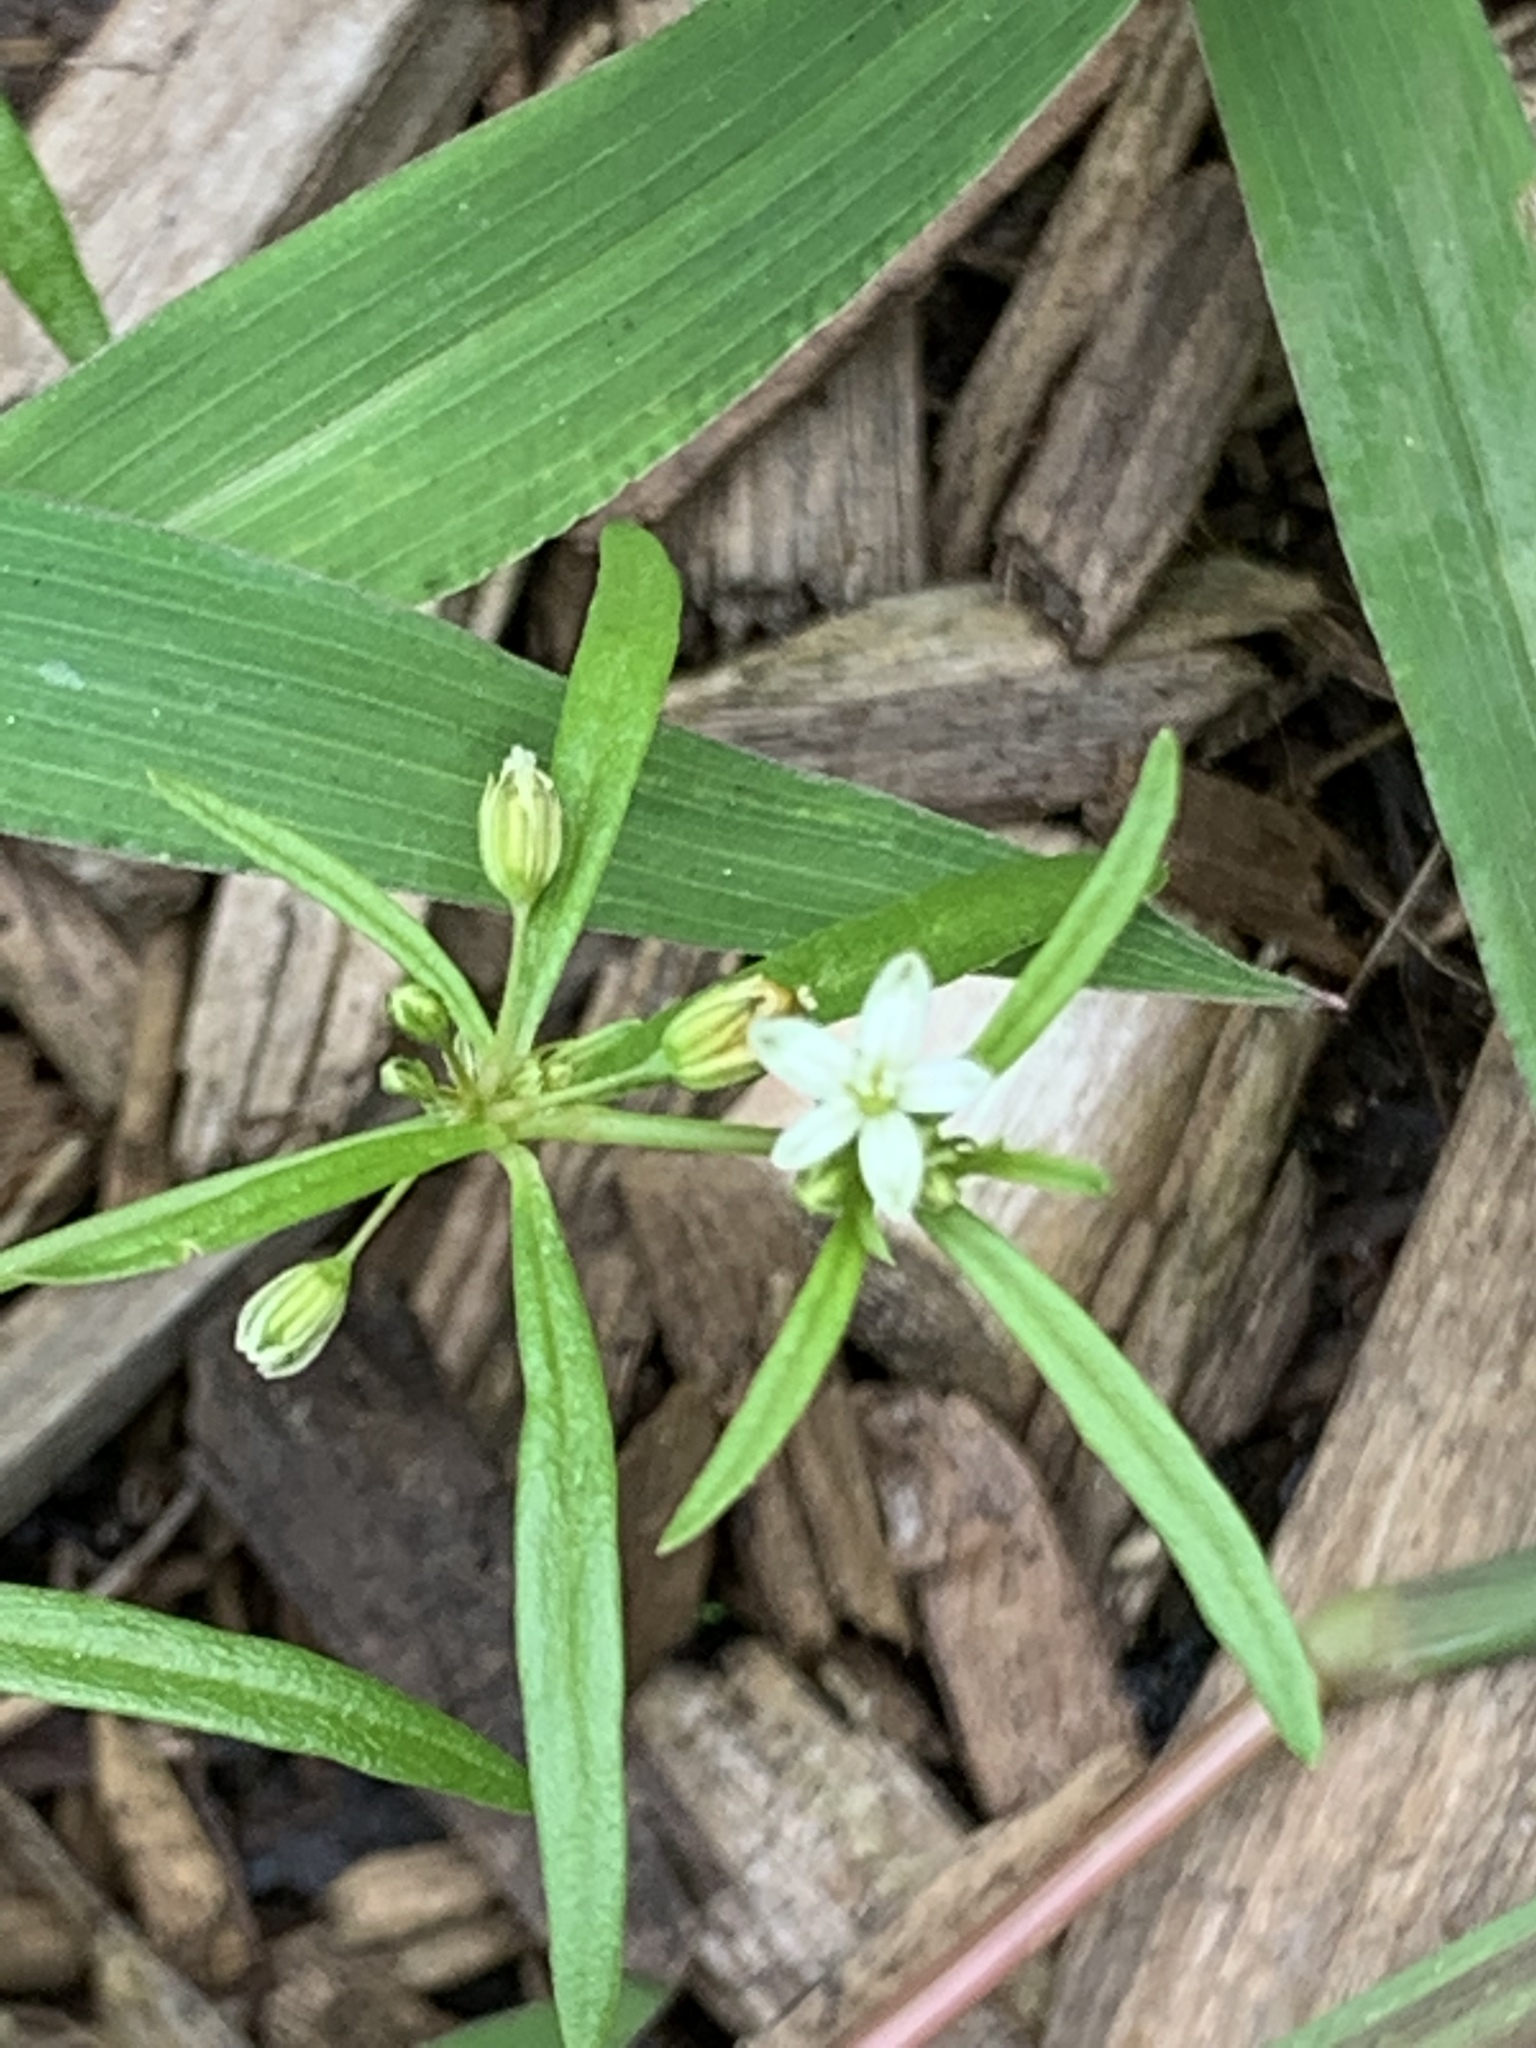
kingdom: Plantae
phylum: Tracheophyta
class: Magnoliopsida
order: Caryophyllales
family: Molluginaceae
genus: Mollugo
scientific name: Mollugo verticillata
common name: Green carpetweed
